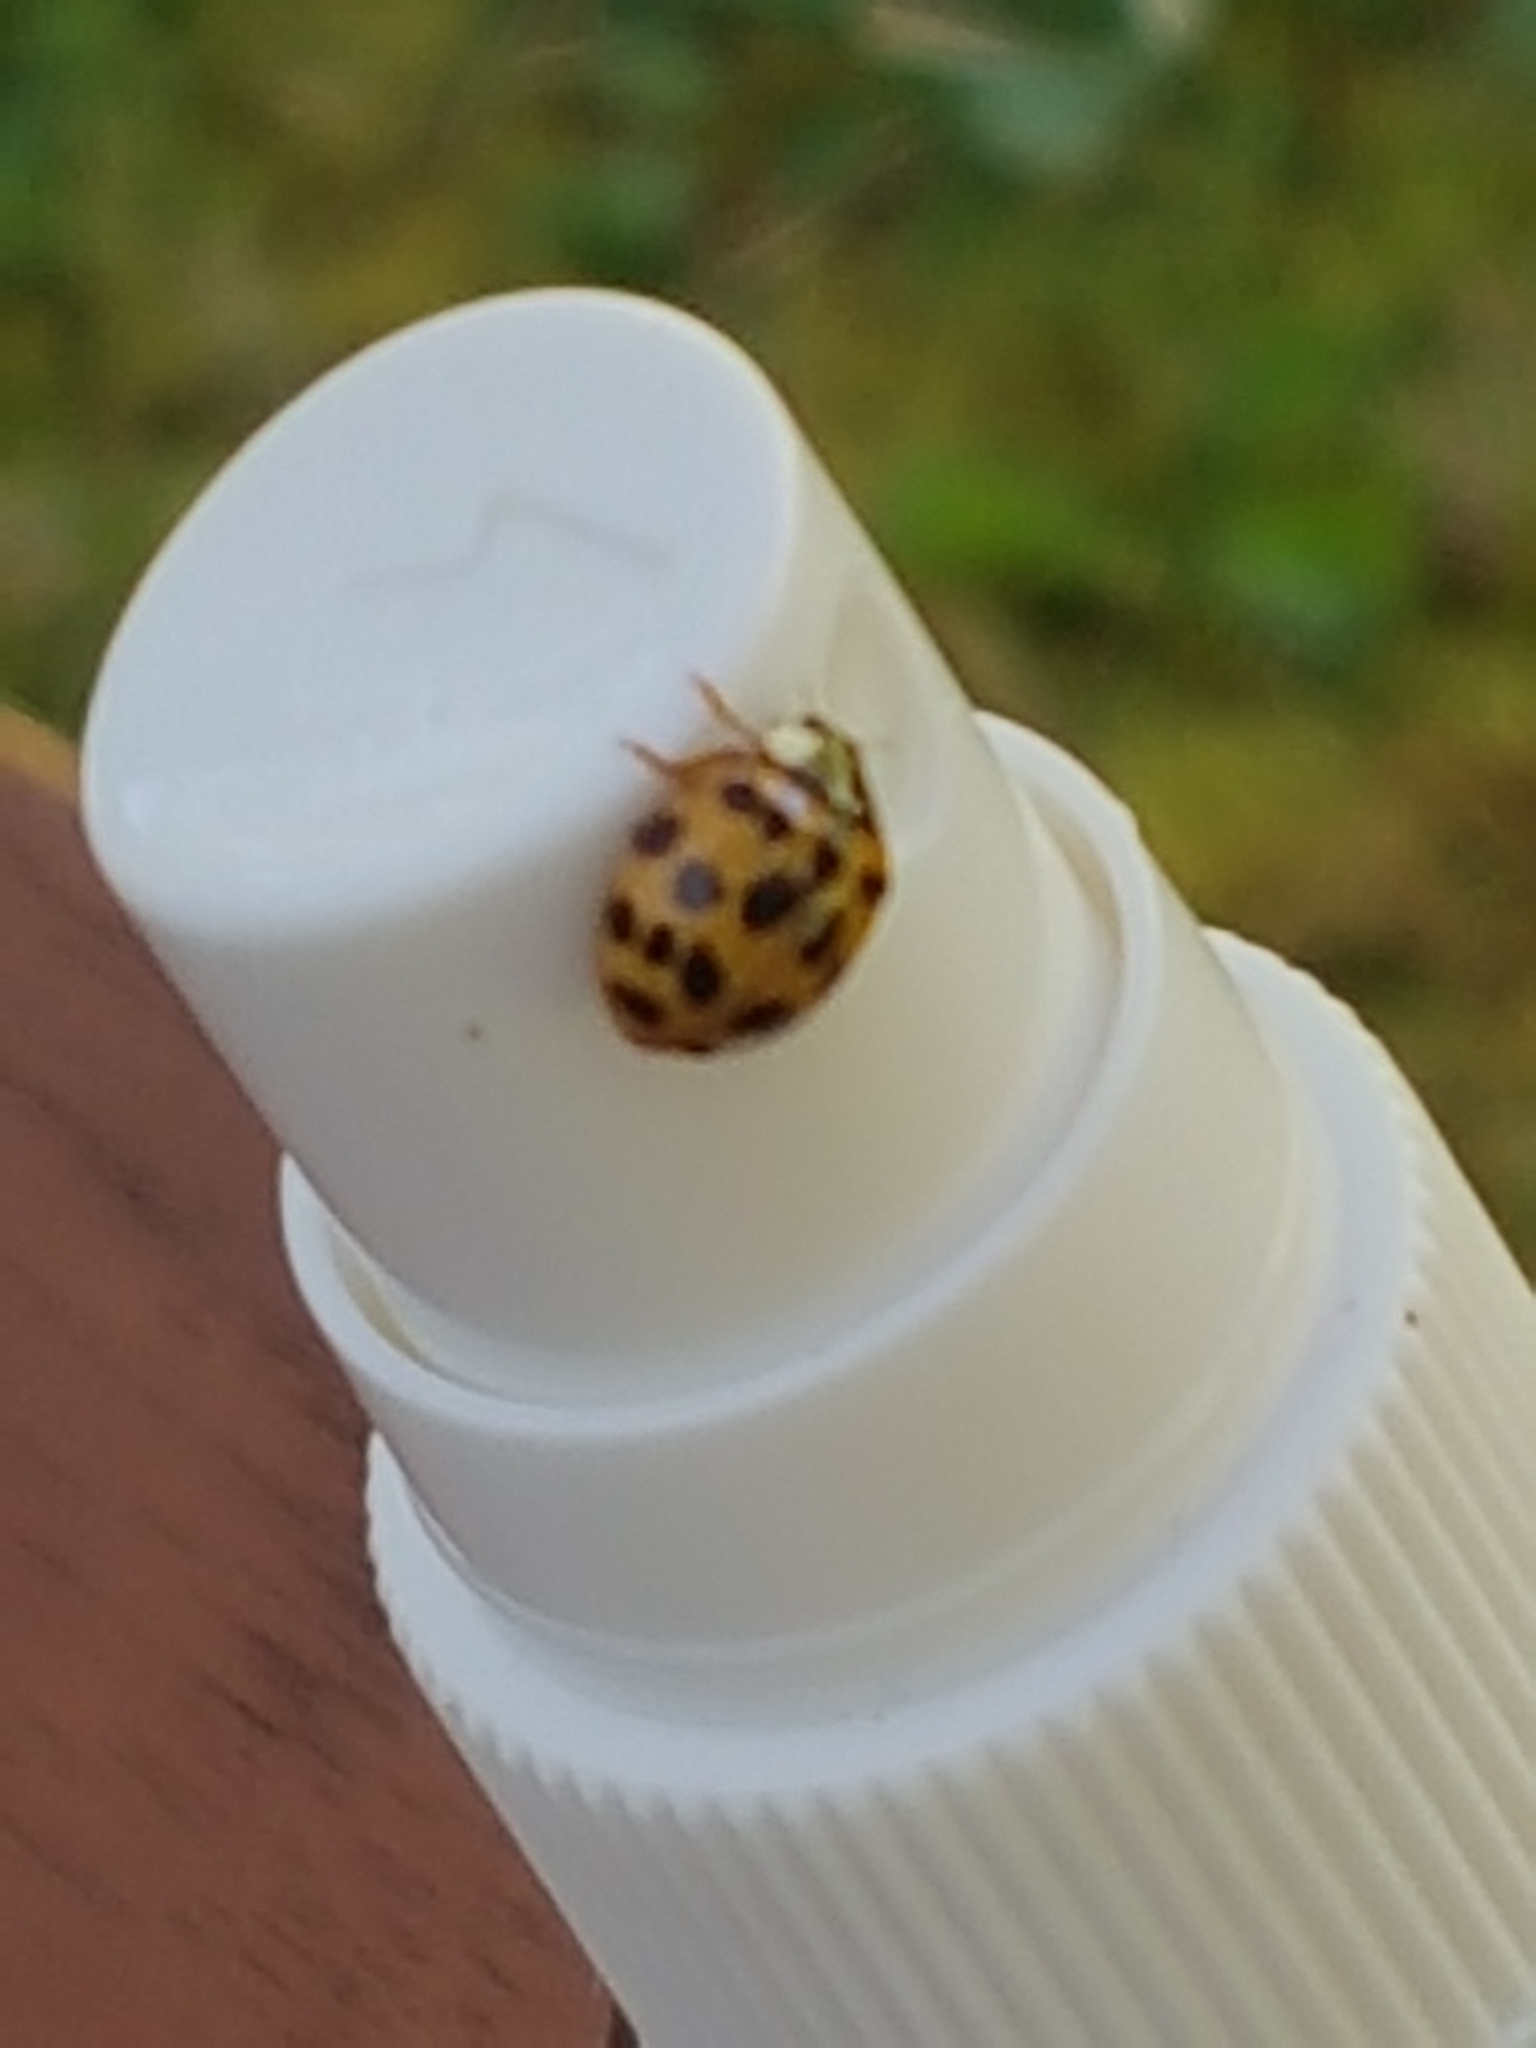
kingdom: Animalia
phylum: Arthropoda
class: Insecta
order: Coleoptera
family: Coccinellidae
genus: Harmonia
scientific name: Harmonia axyridis
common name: Harlequin ladybird
